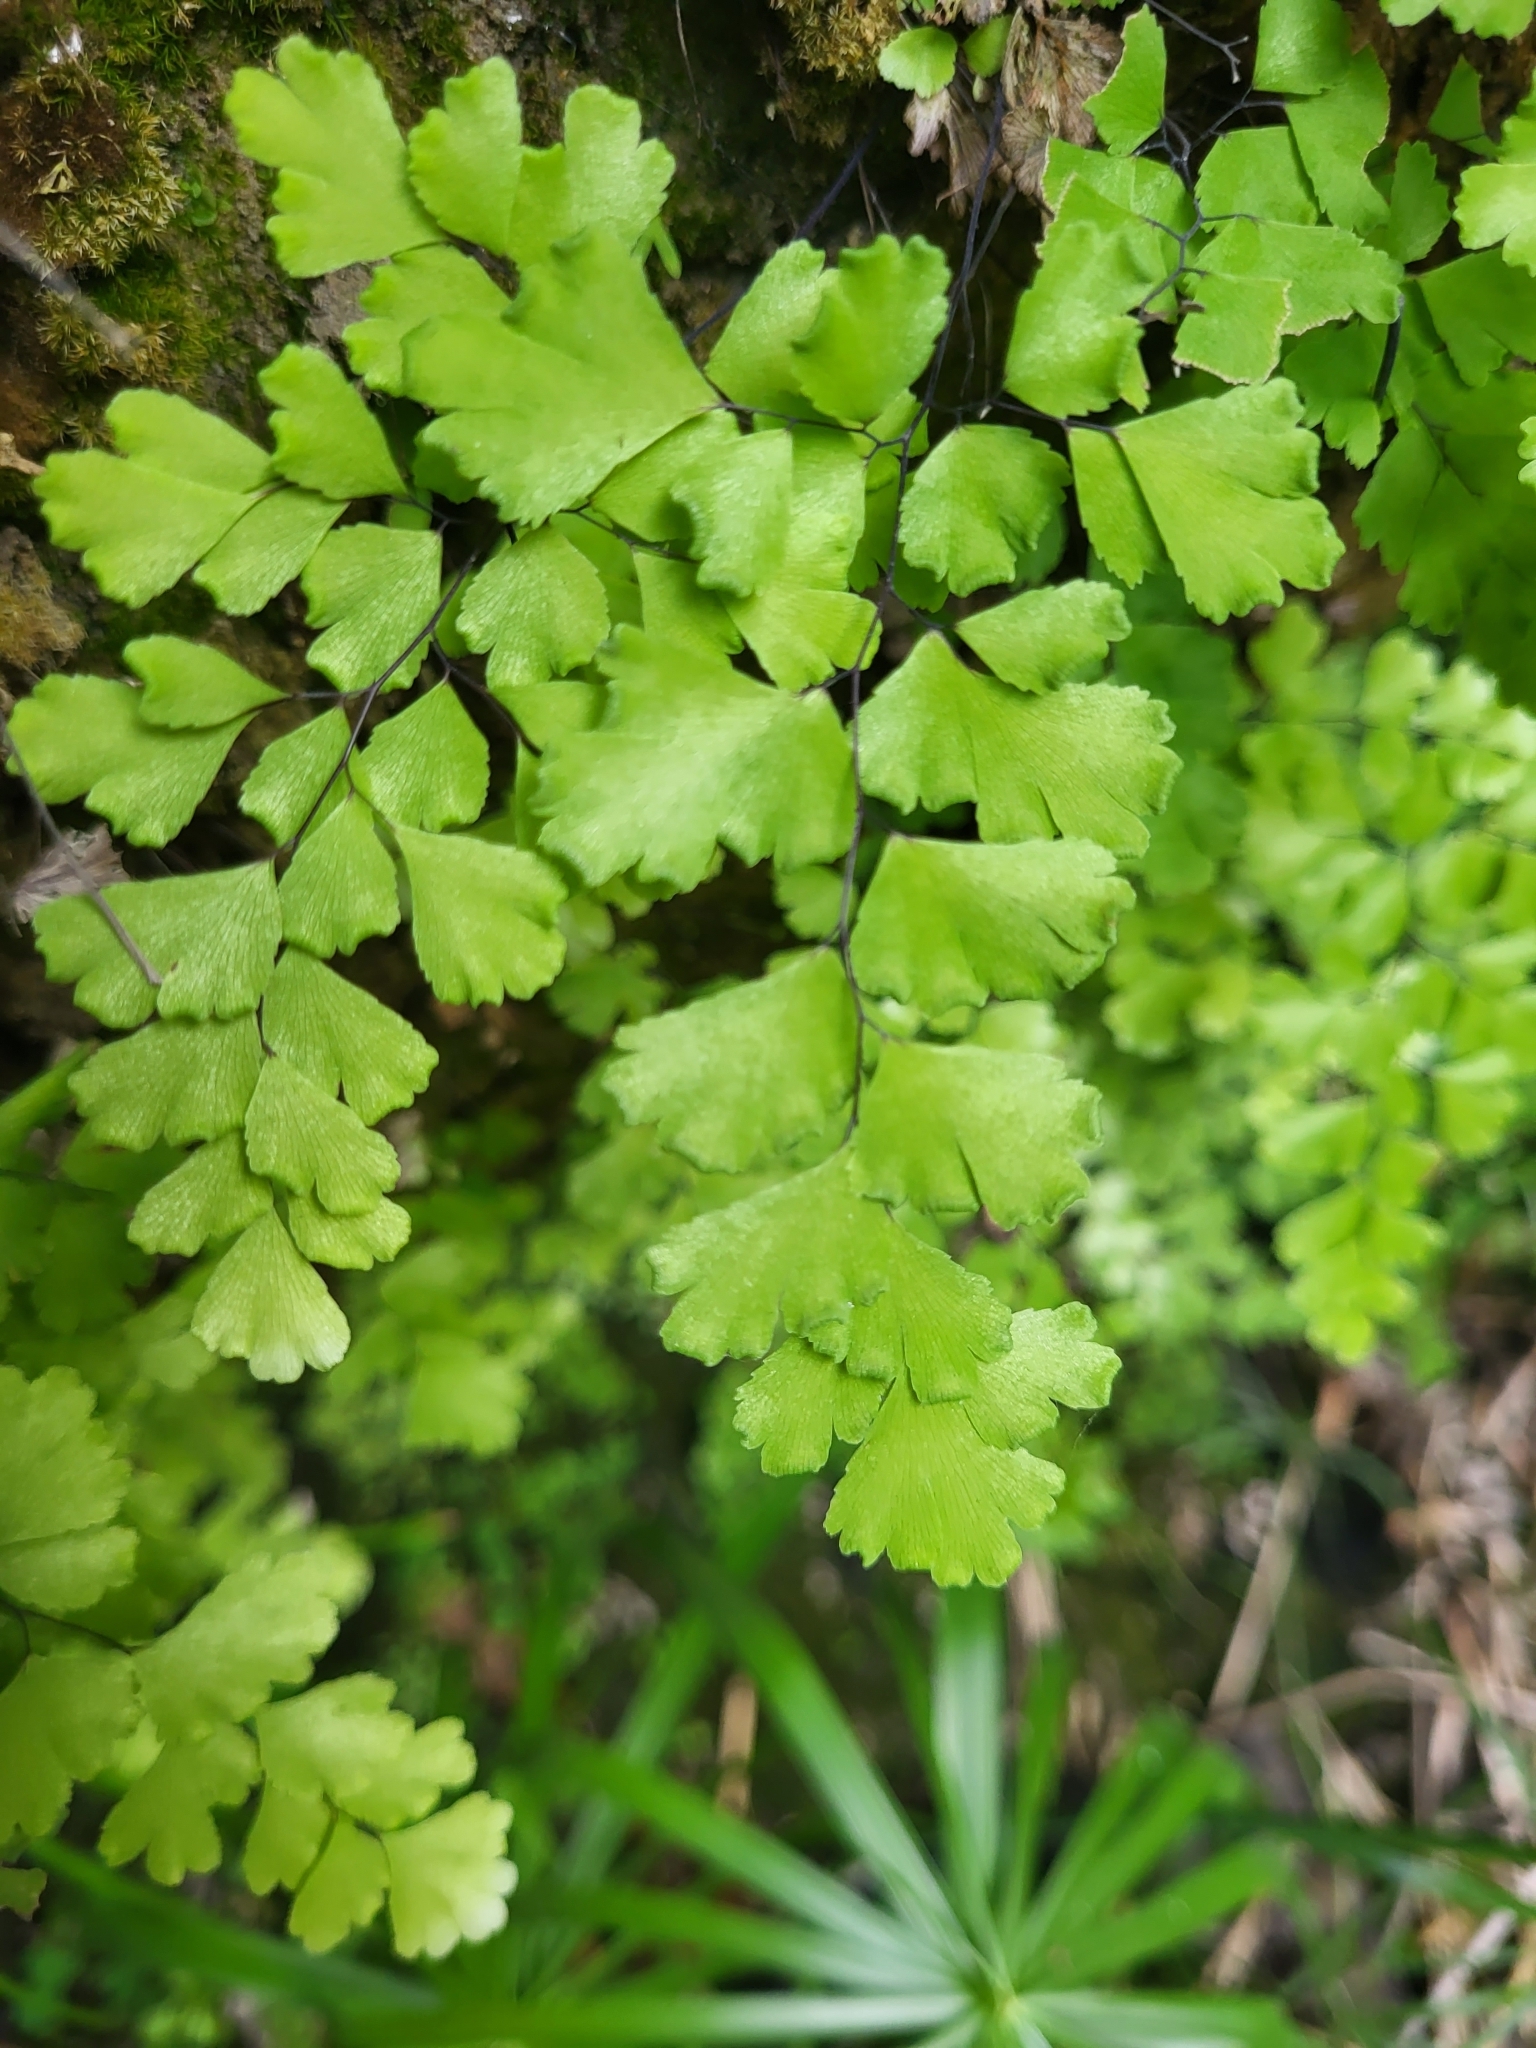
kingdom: Plantae
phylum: Tracheophyta
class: Polypodiopsida
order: Polypodiales
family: Pteridaceae
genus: Adiantum
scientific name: Adiantum capillus-veneris
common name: Maidenhair fern
